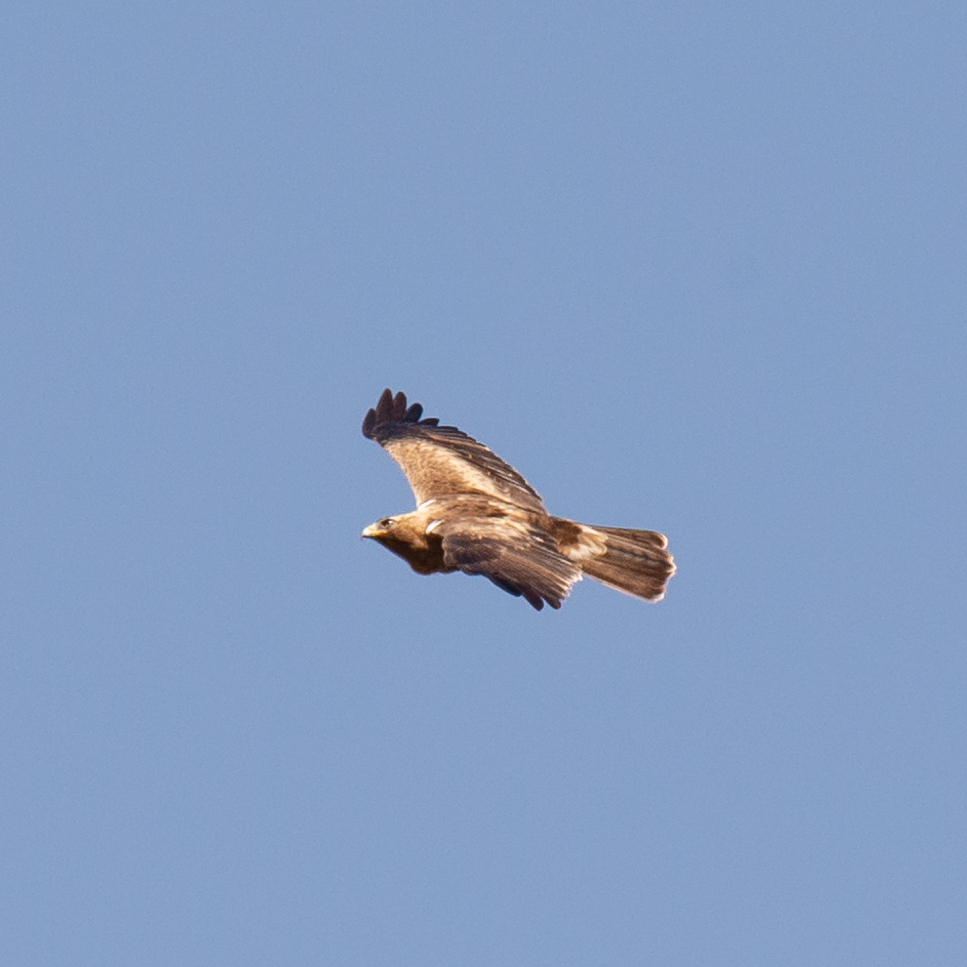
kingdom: Animalia
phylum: Chordata
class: Aves
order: Accipitriformes
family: Accipitridae
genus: Hieraaetus
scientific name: Hieraaetus pennatus
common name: Booted eagle
